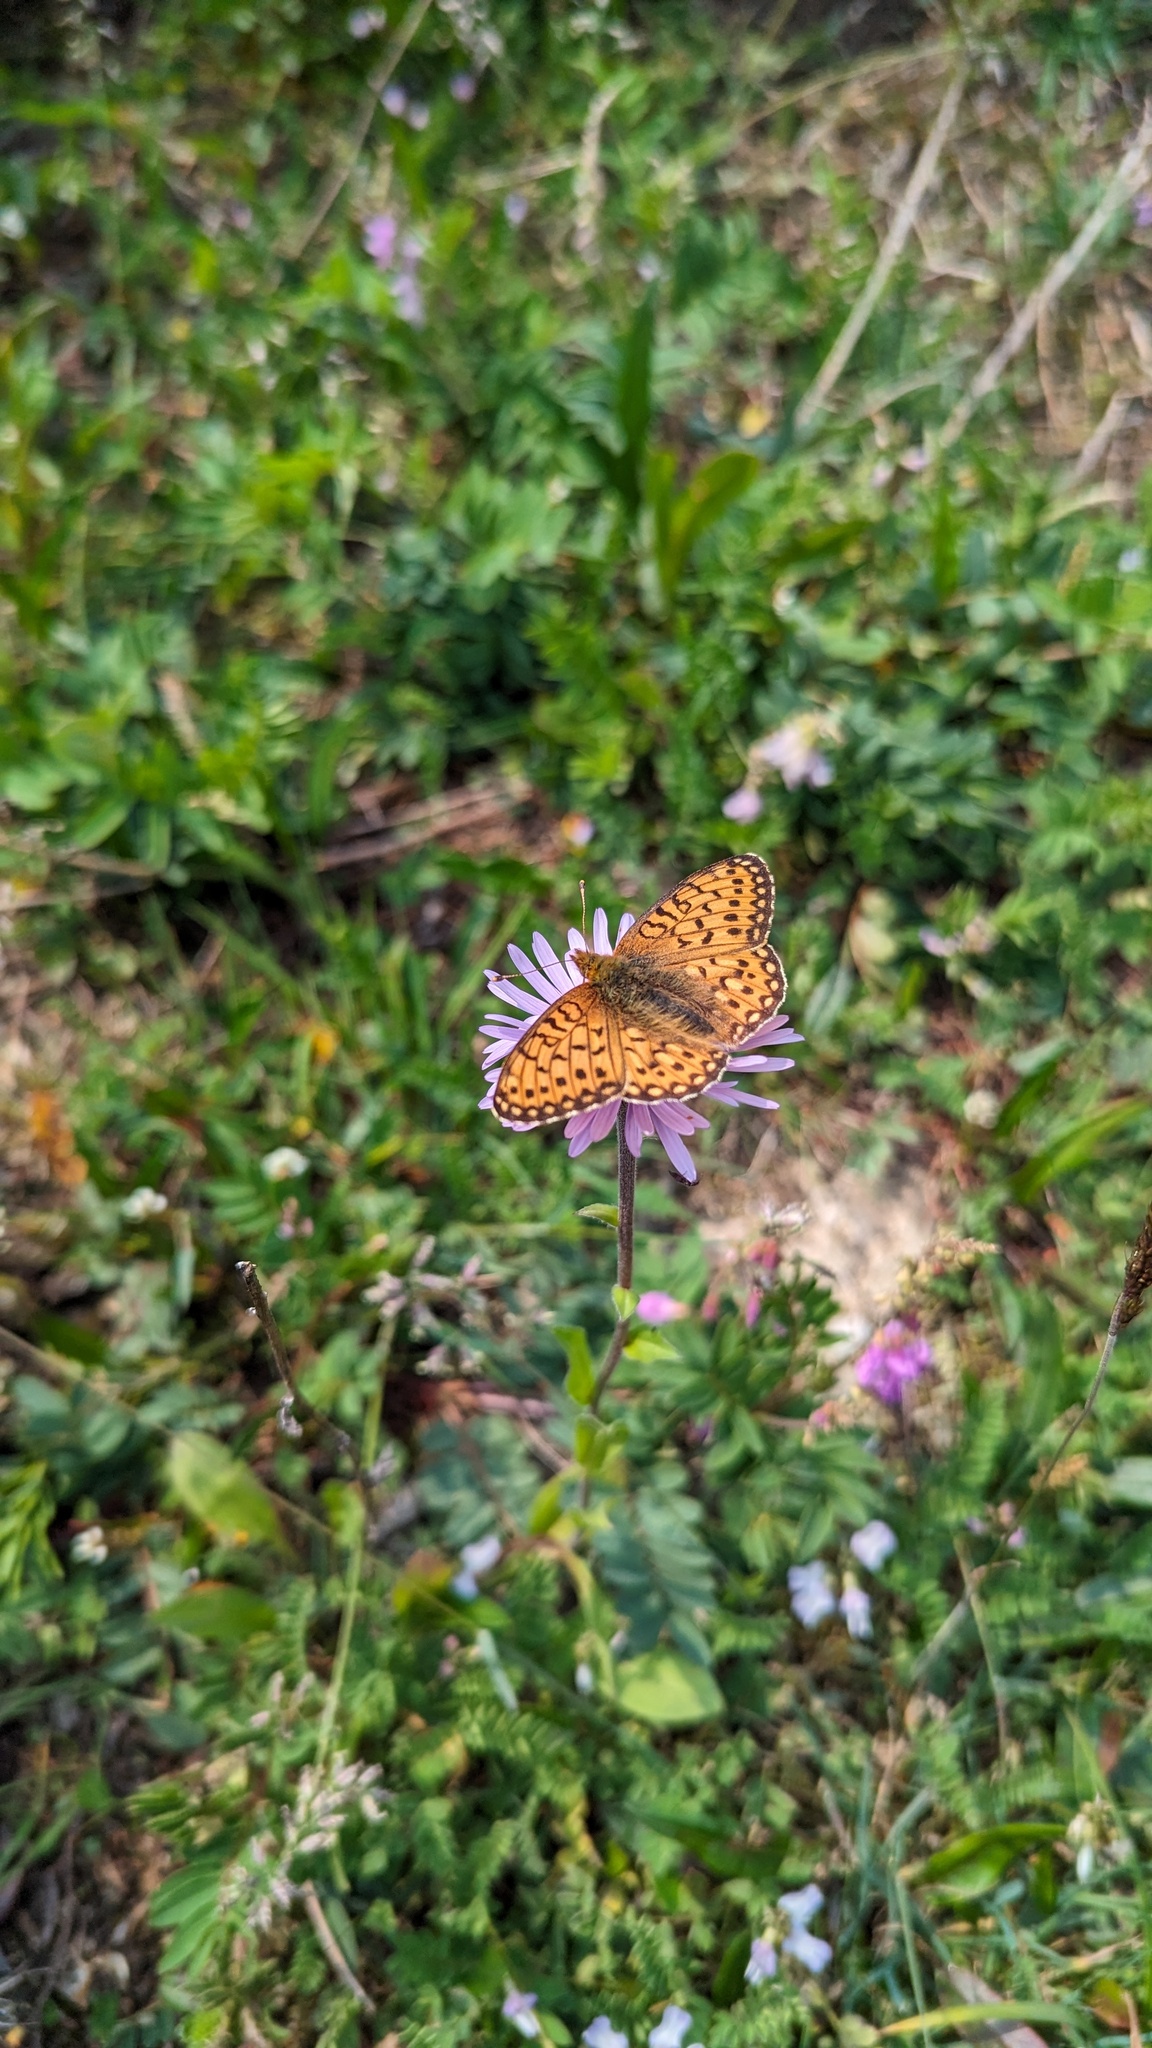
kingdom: Animalia
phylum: Arthropoda
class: Insecta
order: Lepidoptera
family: Nymphalidae
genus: Speyeria
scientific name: Speyeria mormonia
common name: Mormon fritillary
